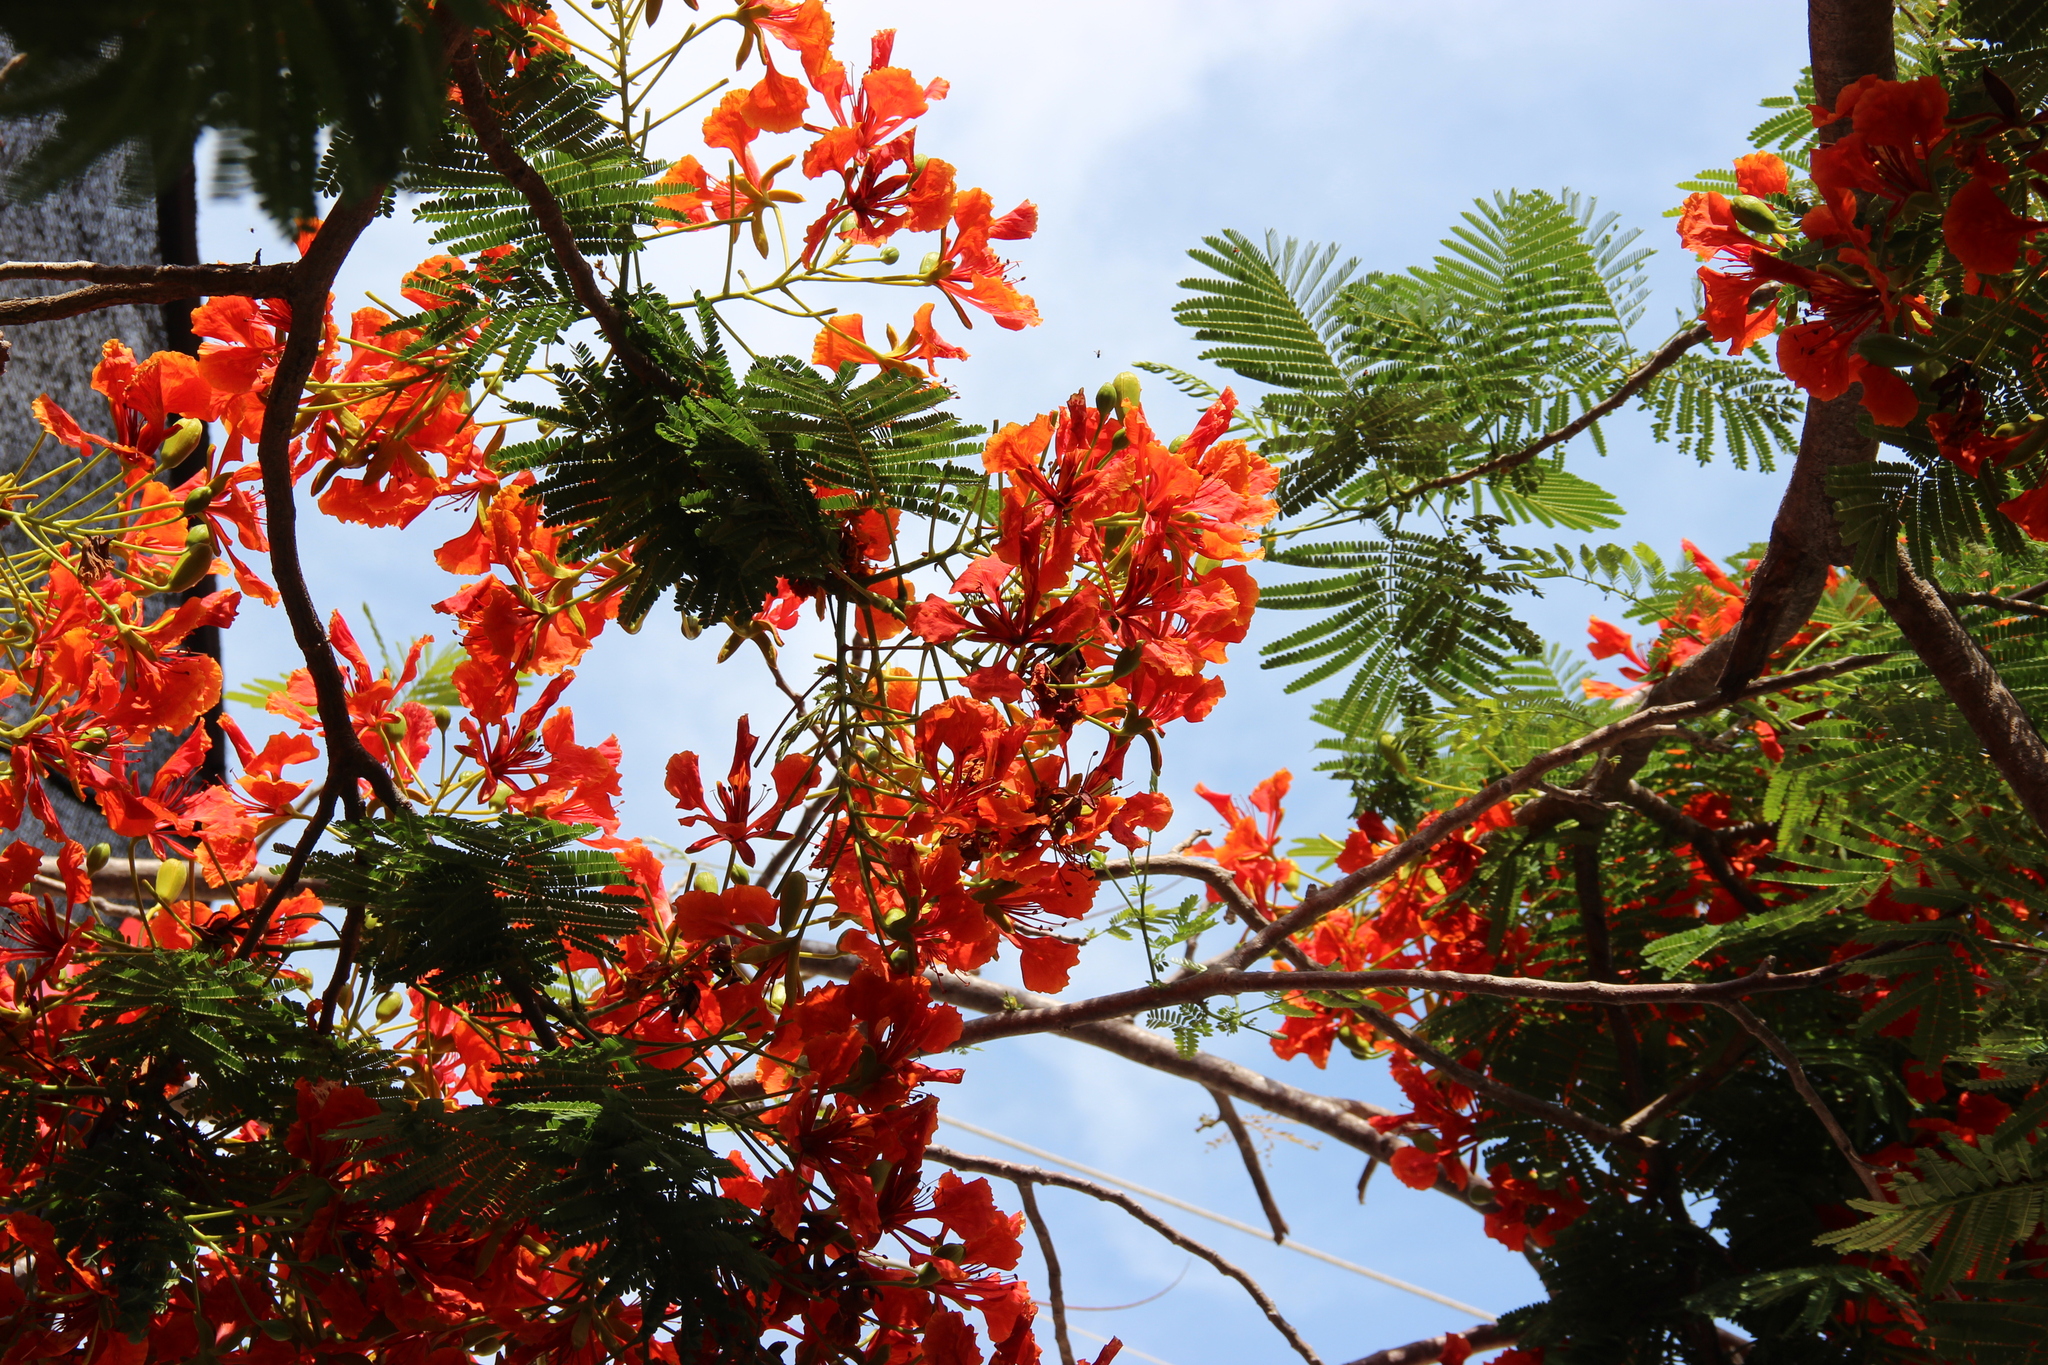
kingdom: Plantae
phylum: Tracheophyta
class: Magnoliopsida
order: Fabales
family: Fabaceae
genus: Delonix
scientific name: Delonix regia
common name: Royal poinciana
